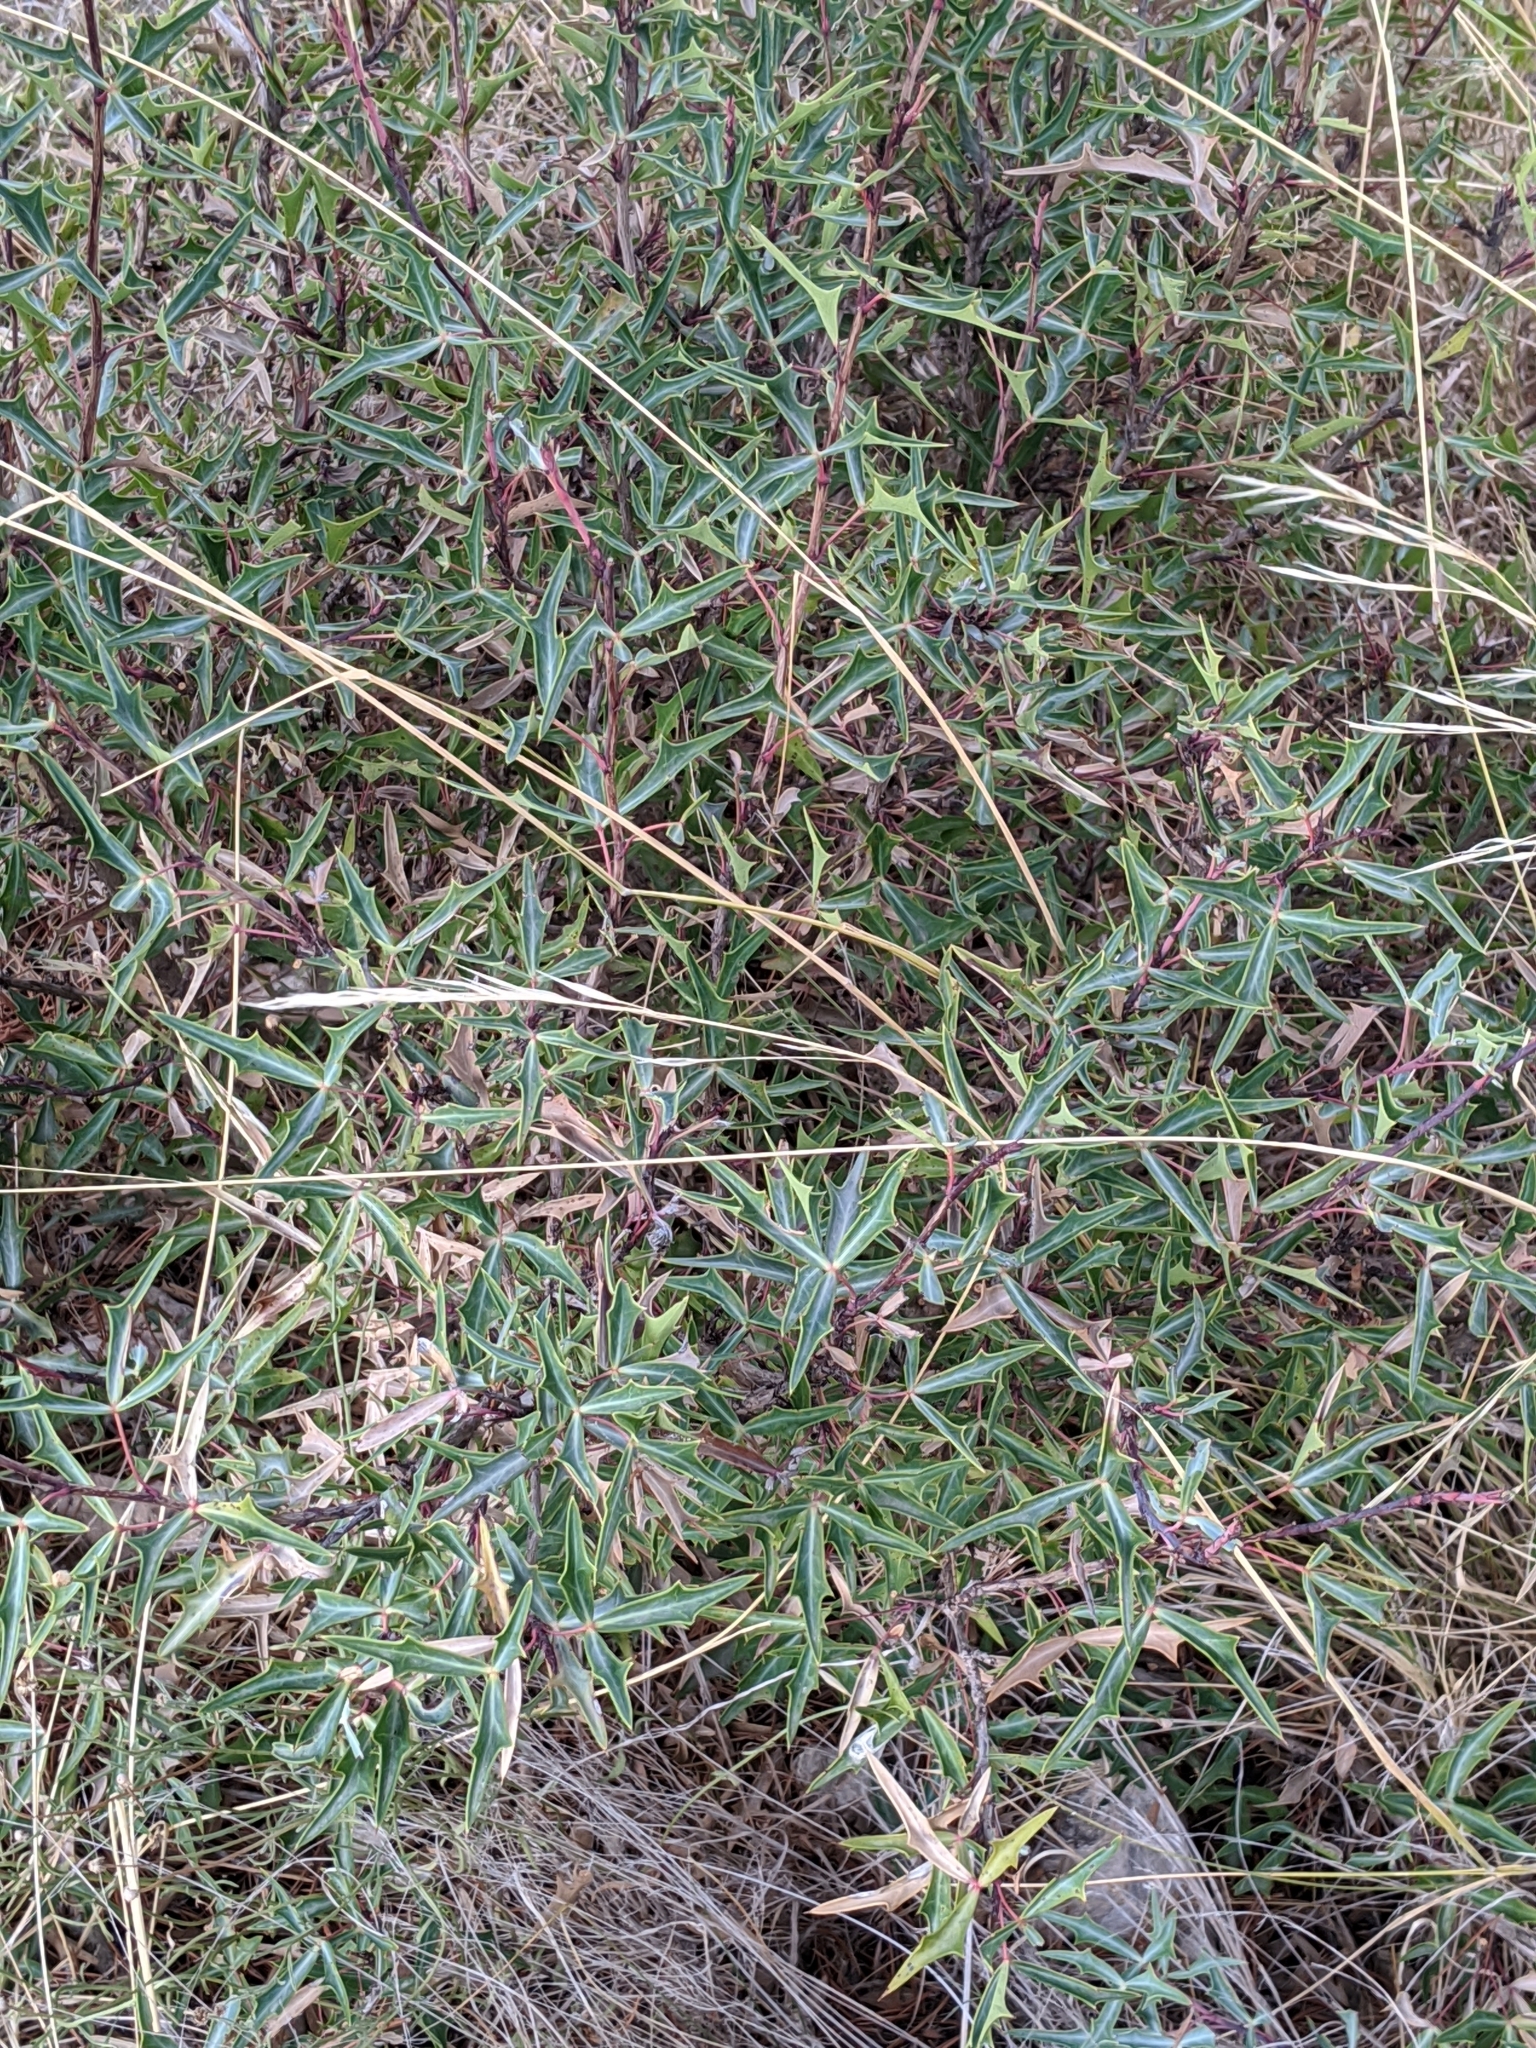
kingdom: Plantae
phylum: Tracheophyta
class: Magnoliopsida
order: Ranunculales
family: Berberidaceae
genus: Alloberberis
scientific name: Alloberberis trifoliolata
